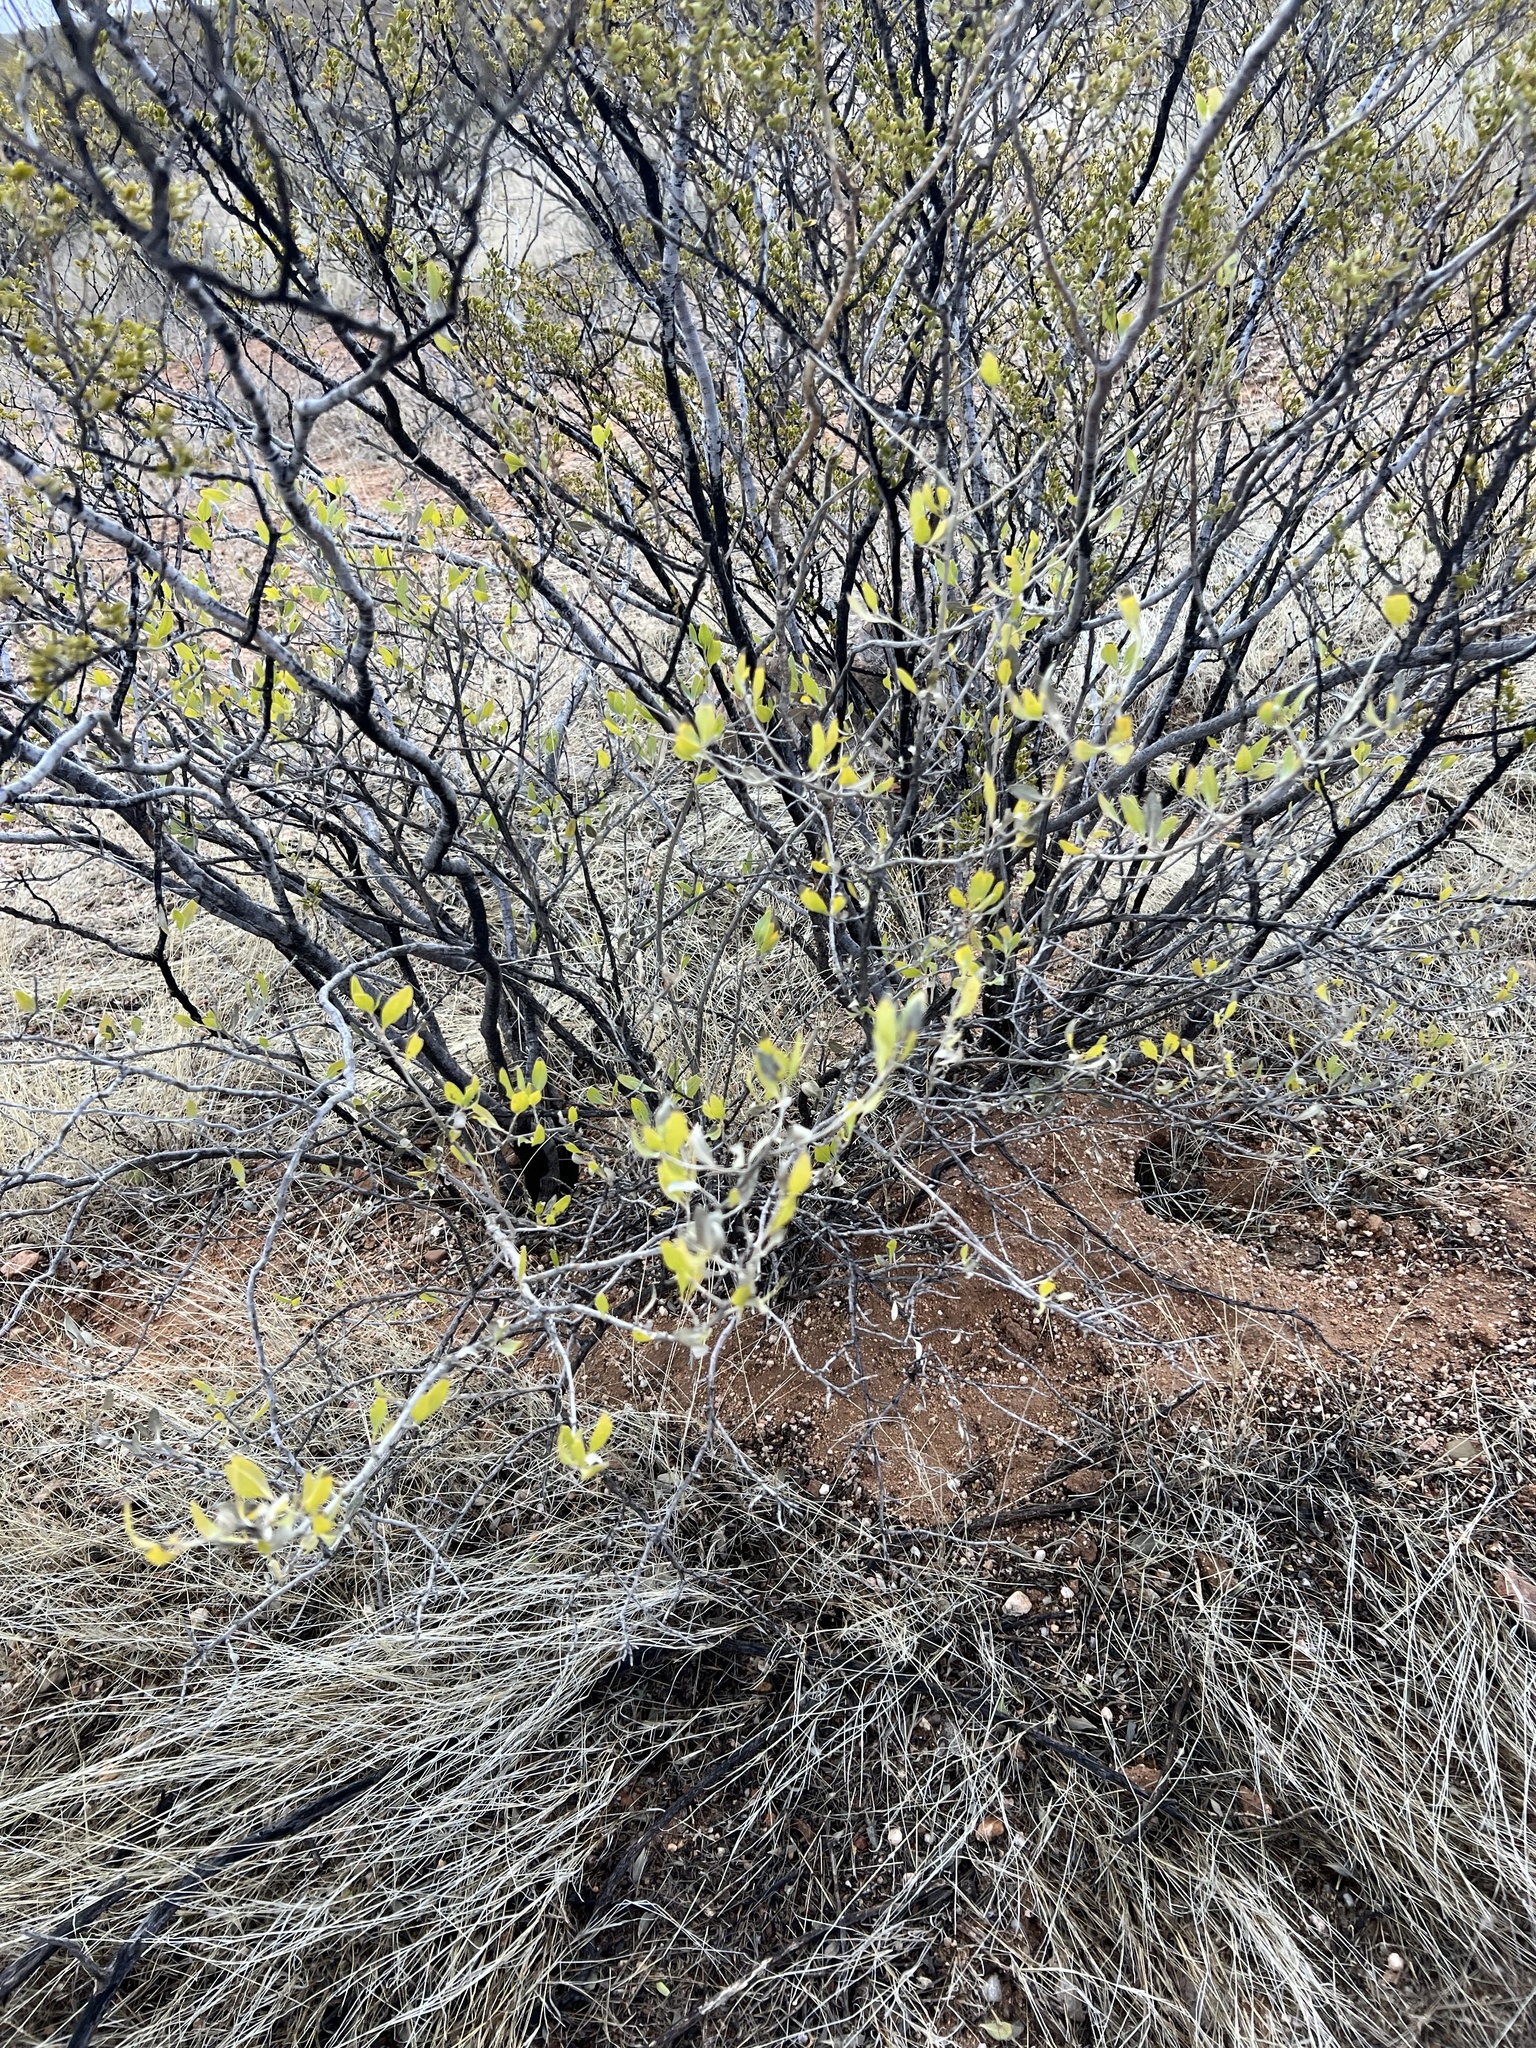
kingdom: Plantae
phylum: Tracheophyta
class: Magnoliopsida
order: Asterales
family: Asteraceae
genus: Flourensia
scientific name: Flourensia cernua
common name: Varnishbush
